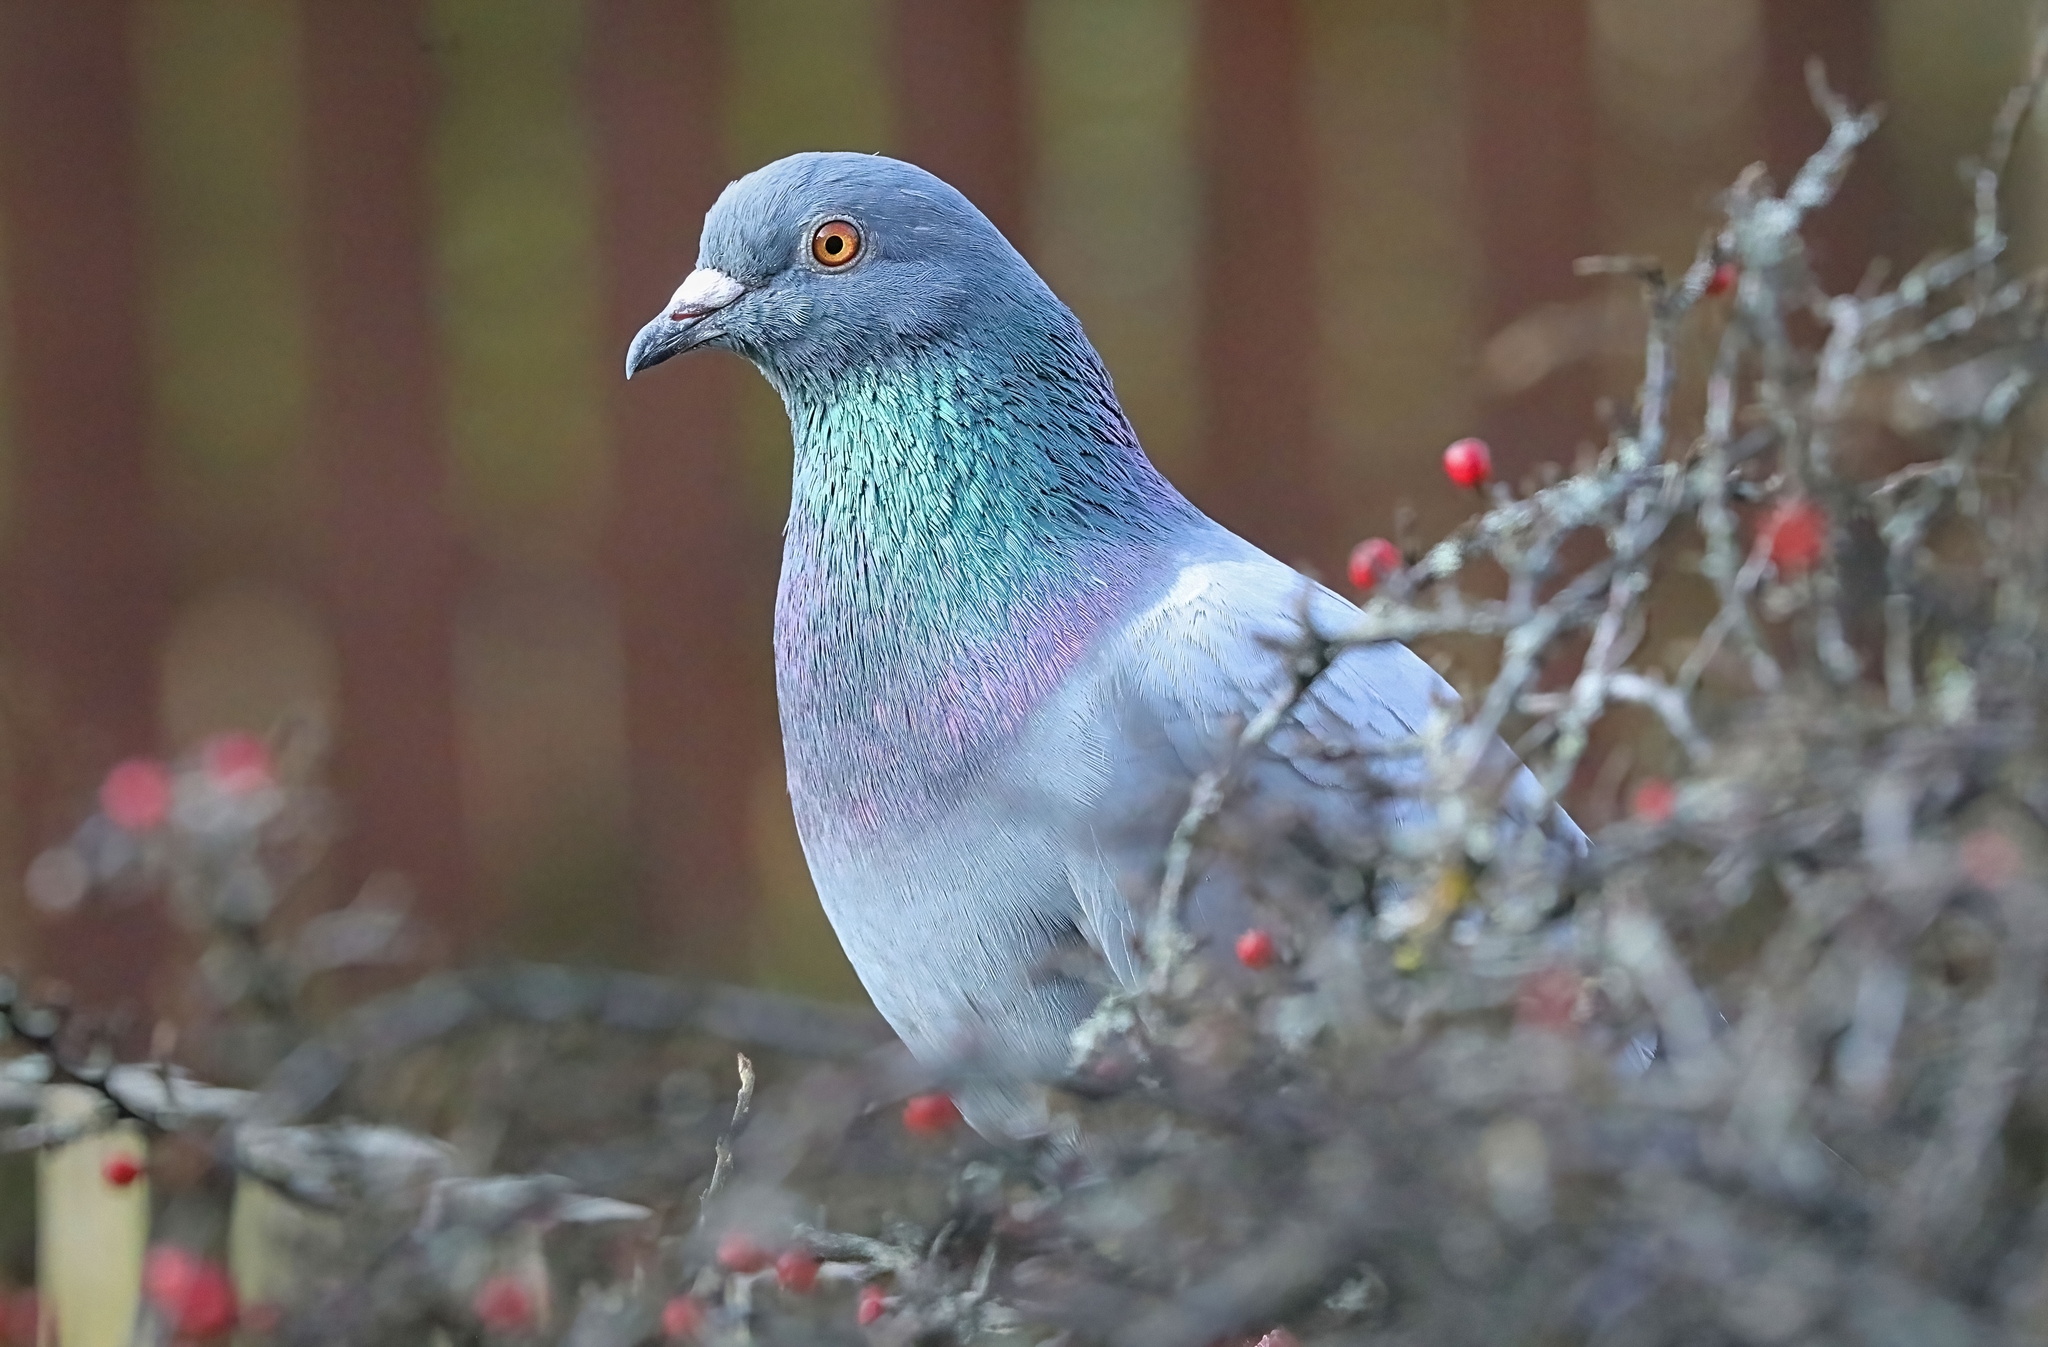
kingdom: Animalia
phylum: Chordata
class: Aves
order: Columbiformes
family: Columbidae
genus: Columba
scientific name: Columba livia
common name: Rock pigeon
